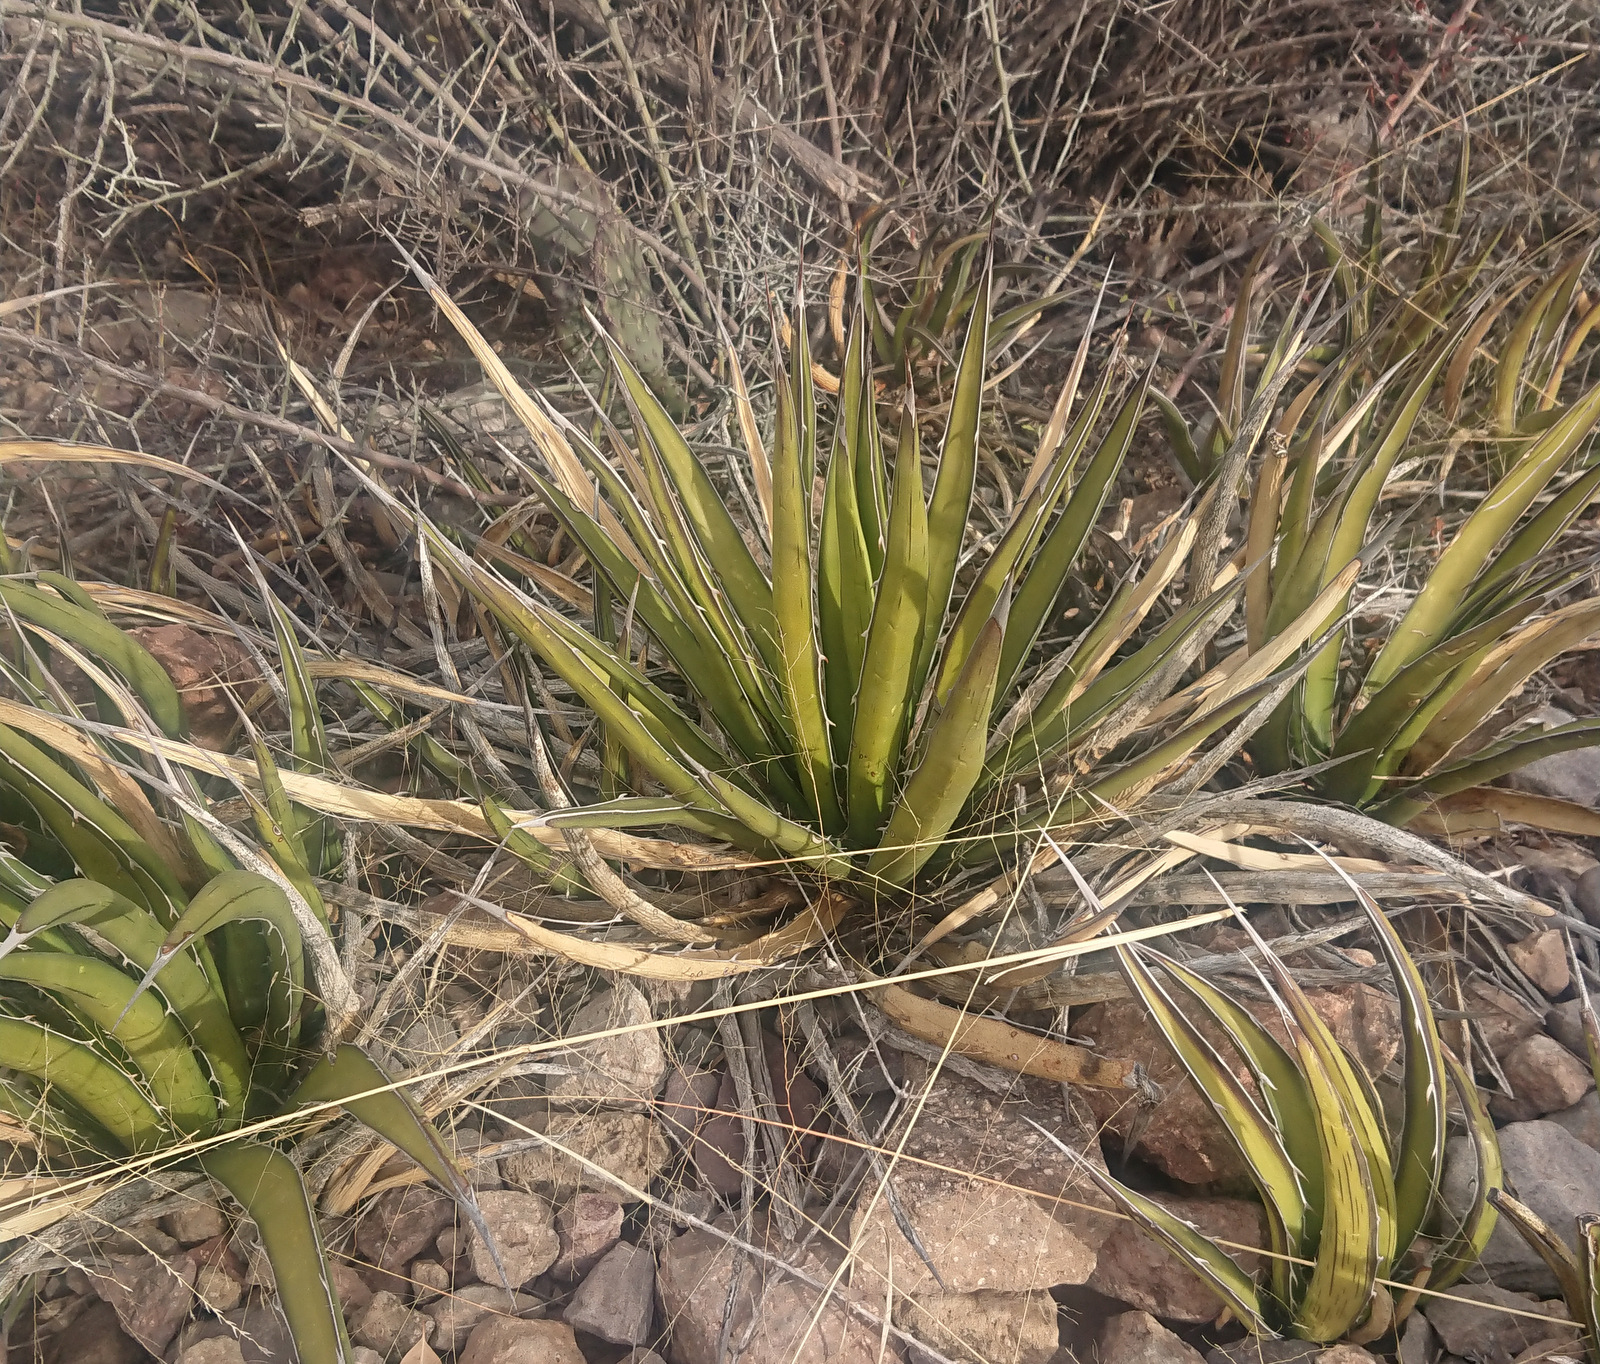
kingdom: Plantae
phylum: Tracheophyta
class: Liliopsida
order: Asparagales
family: Asparagaceae
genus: Agave
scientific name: Agave lechuguilla
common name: Lecheguilla agave
